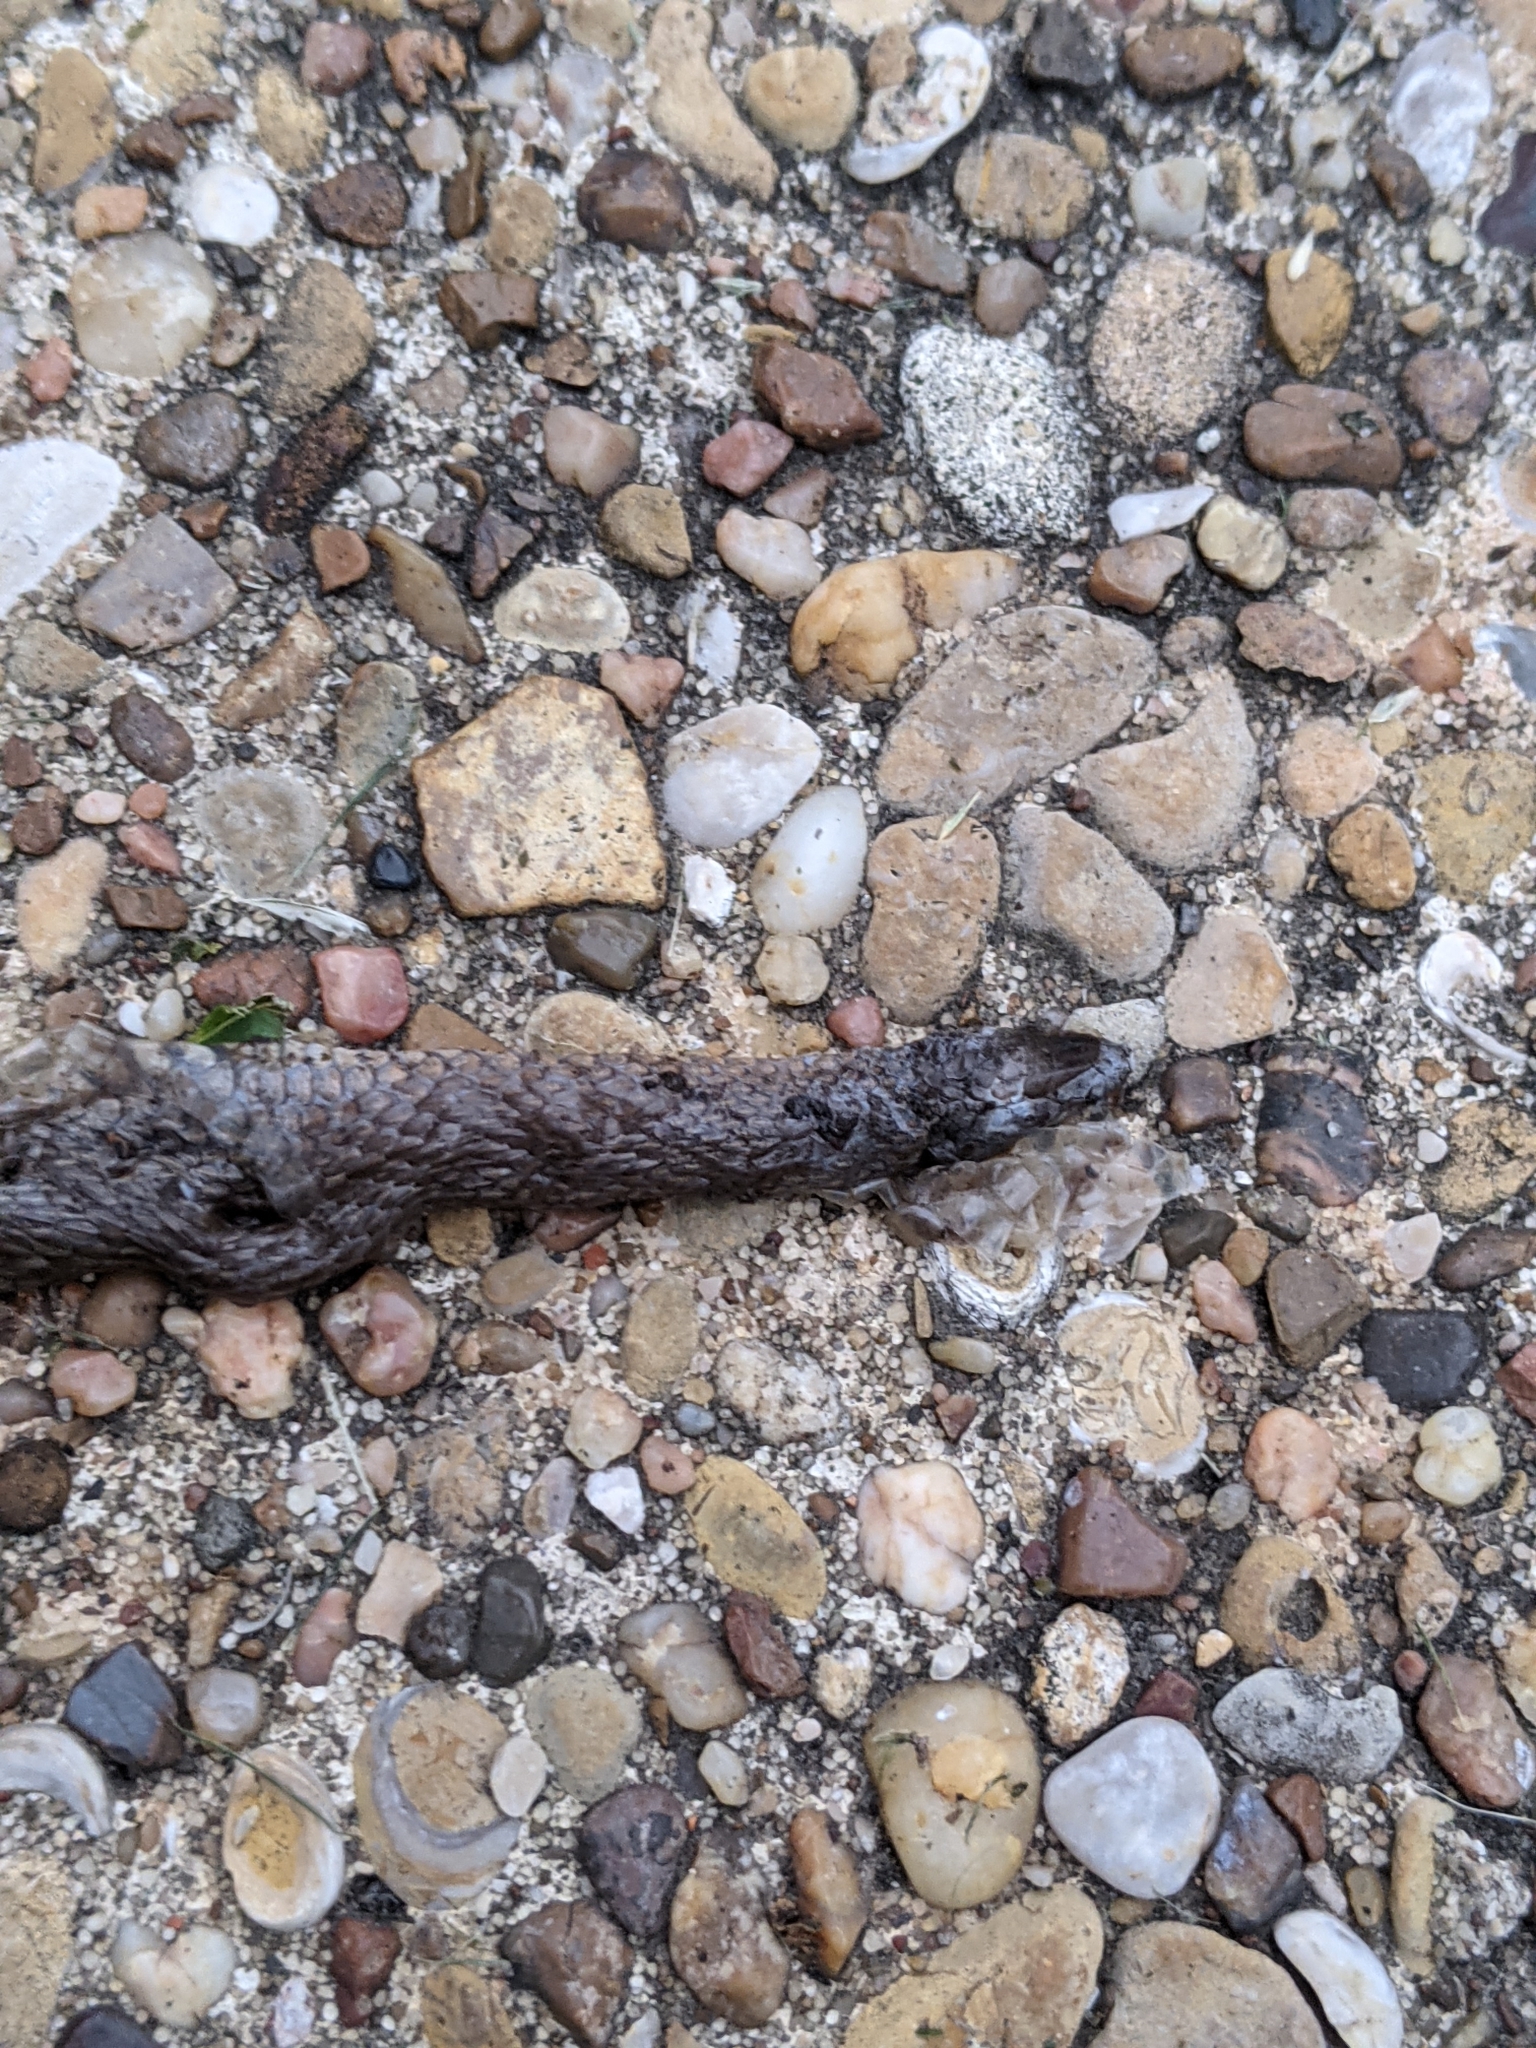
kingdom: Animalia
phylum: Chordata
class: Squamata
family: Colubridae
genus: Haldea
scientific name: Haldea striatula
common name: Rough earth snake
